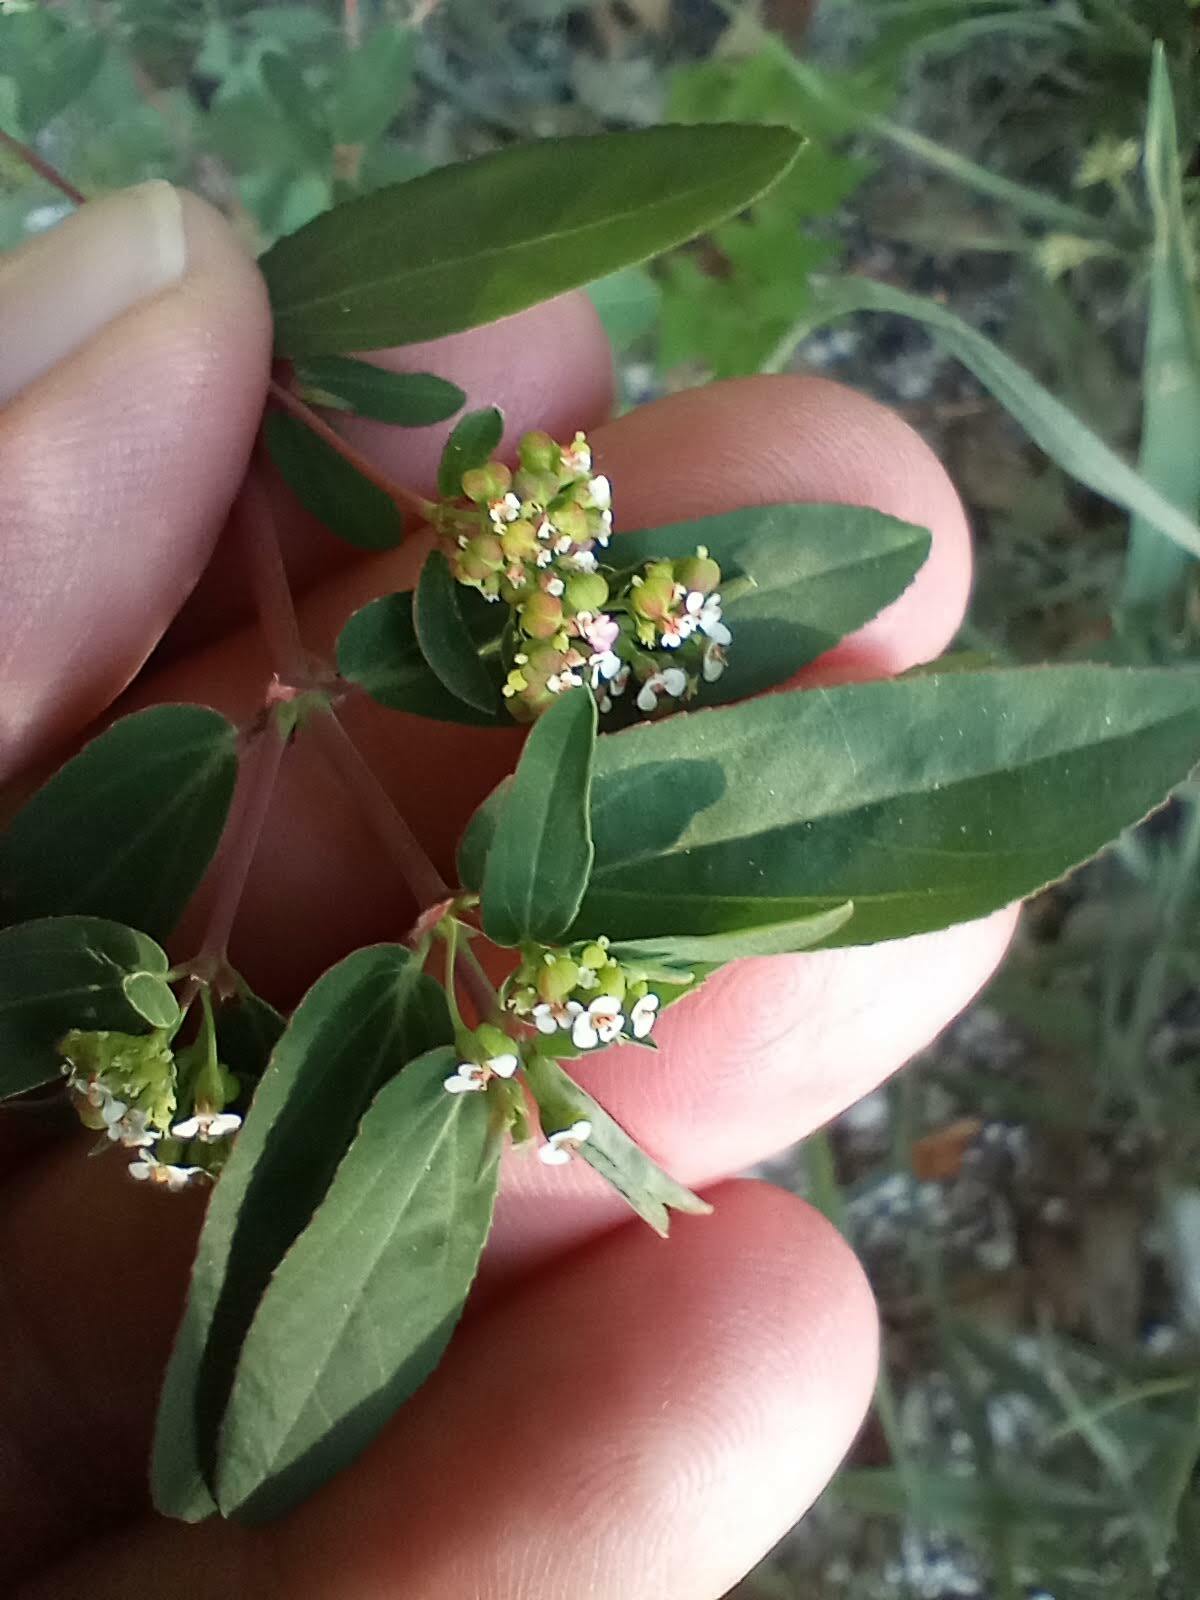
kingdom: Plantae
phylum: Tracheophyta
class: Magnoliopsida
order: Malpighiales
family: Euphorbiaceae
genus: Euphorbia
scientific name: Euphorbia hypericifolia
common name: Graceful sandmat
